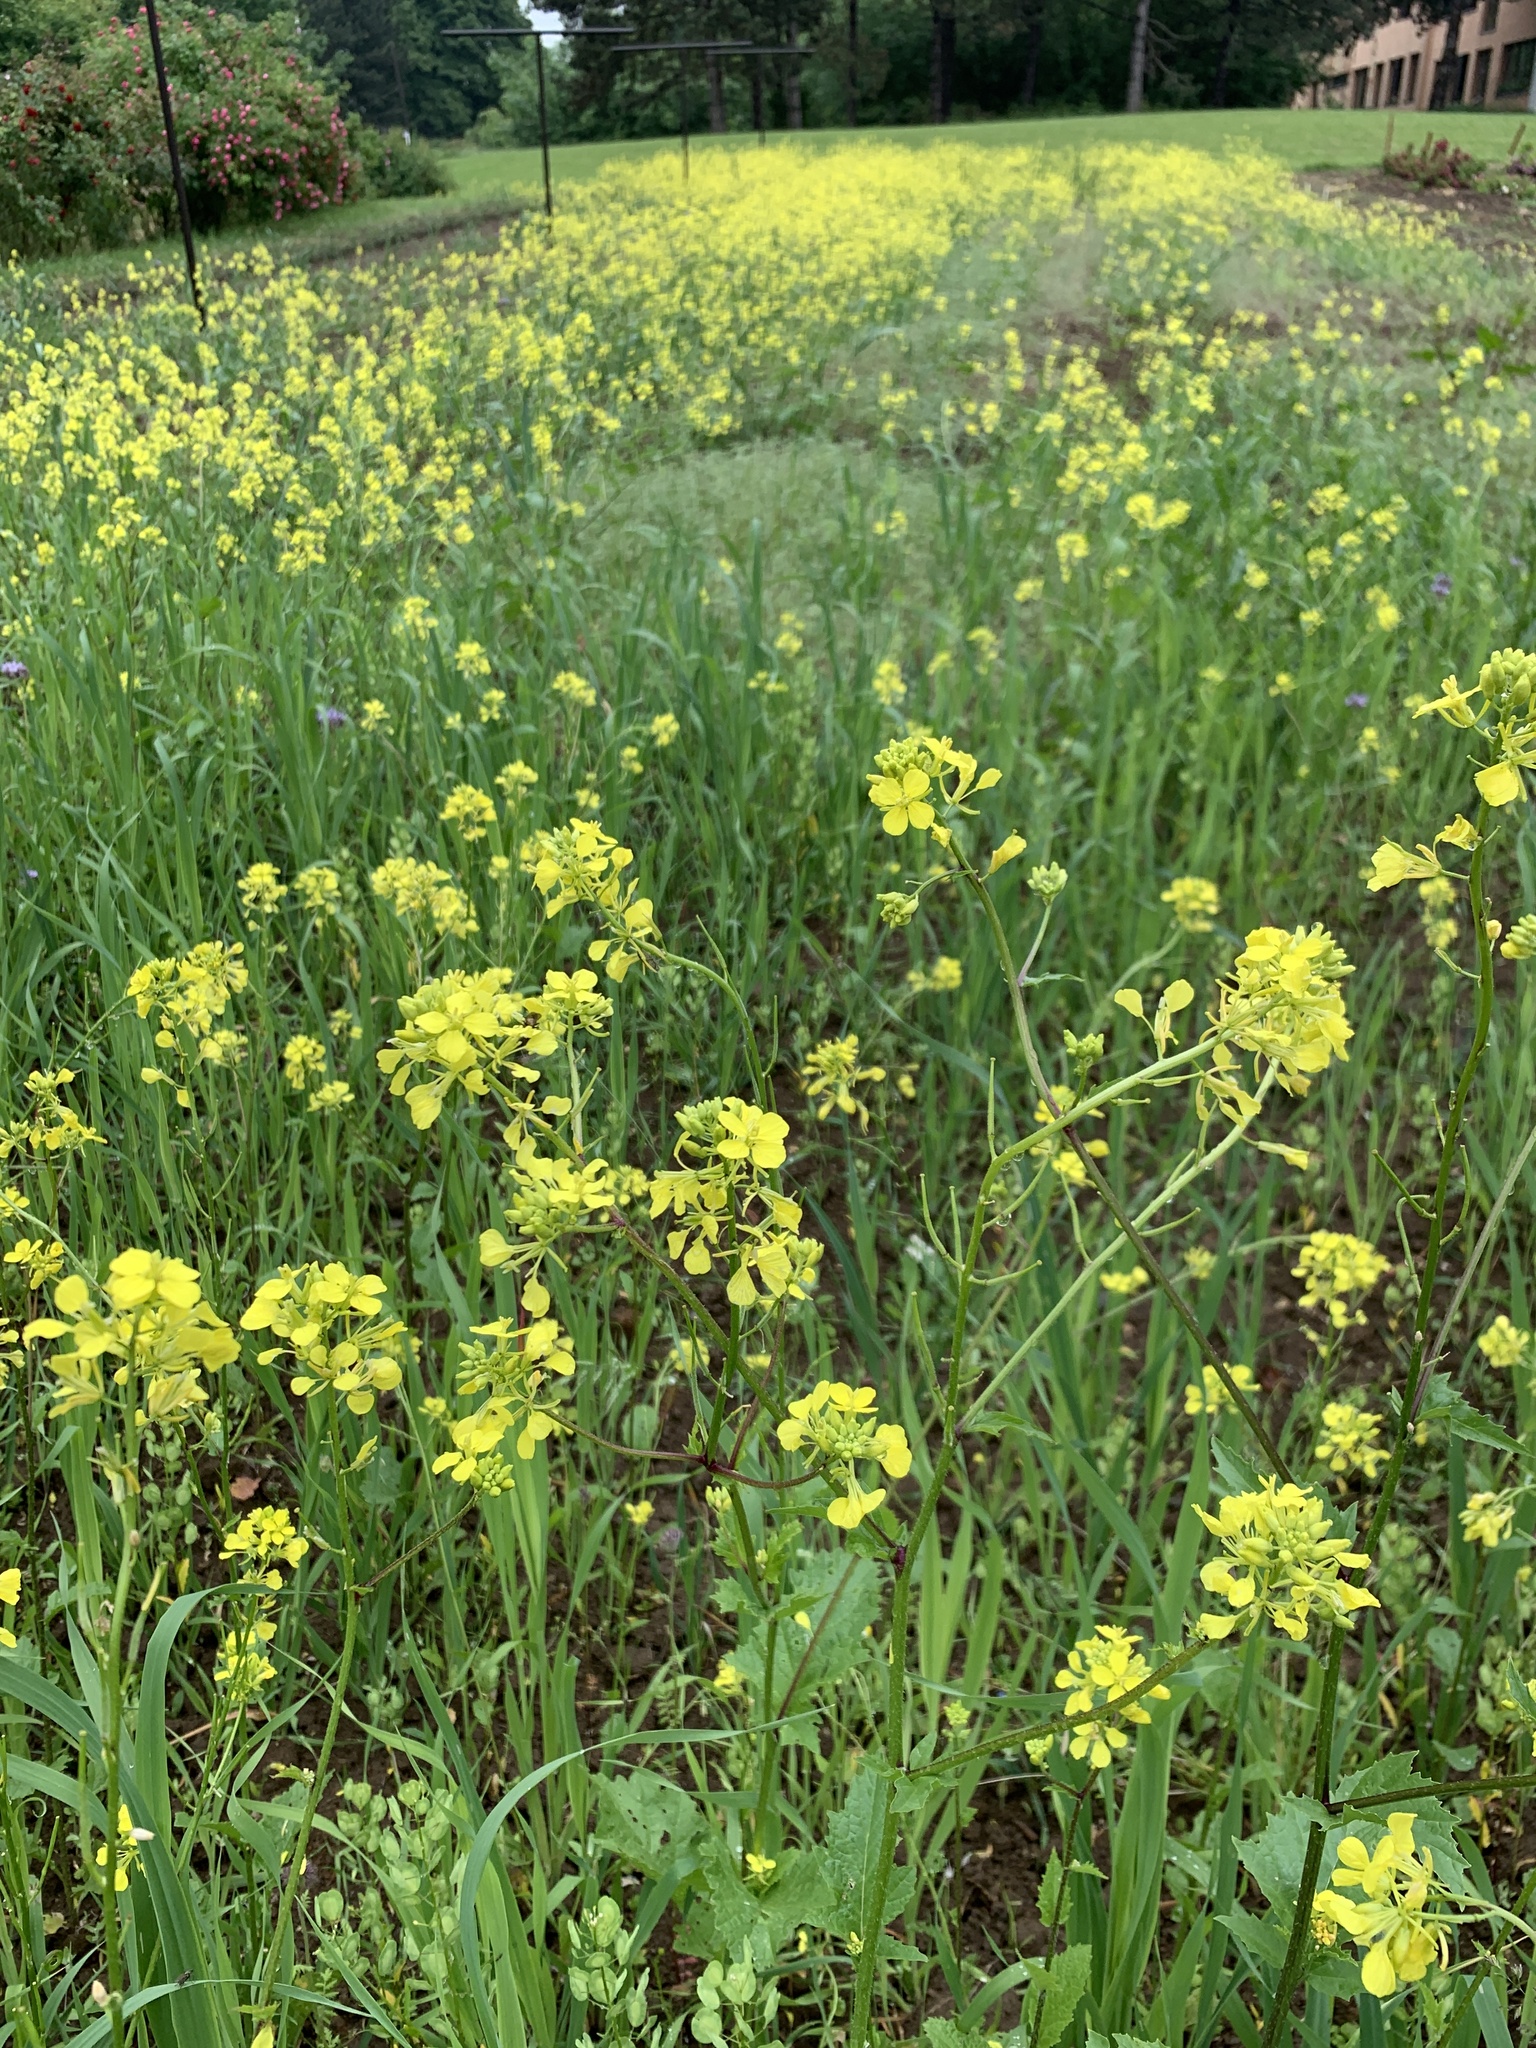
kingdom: Plantae
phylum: Tracheophyta
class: Magnoliopsida
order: Brassicales
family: Brassicaceae
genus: Sinapis
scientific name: Sinapis arvensis
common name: Charlock
